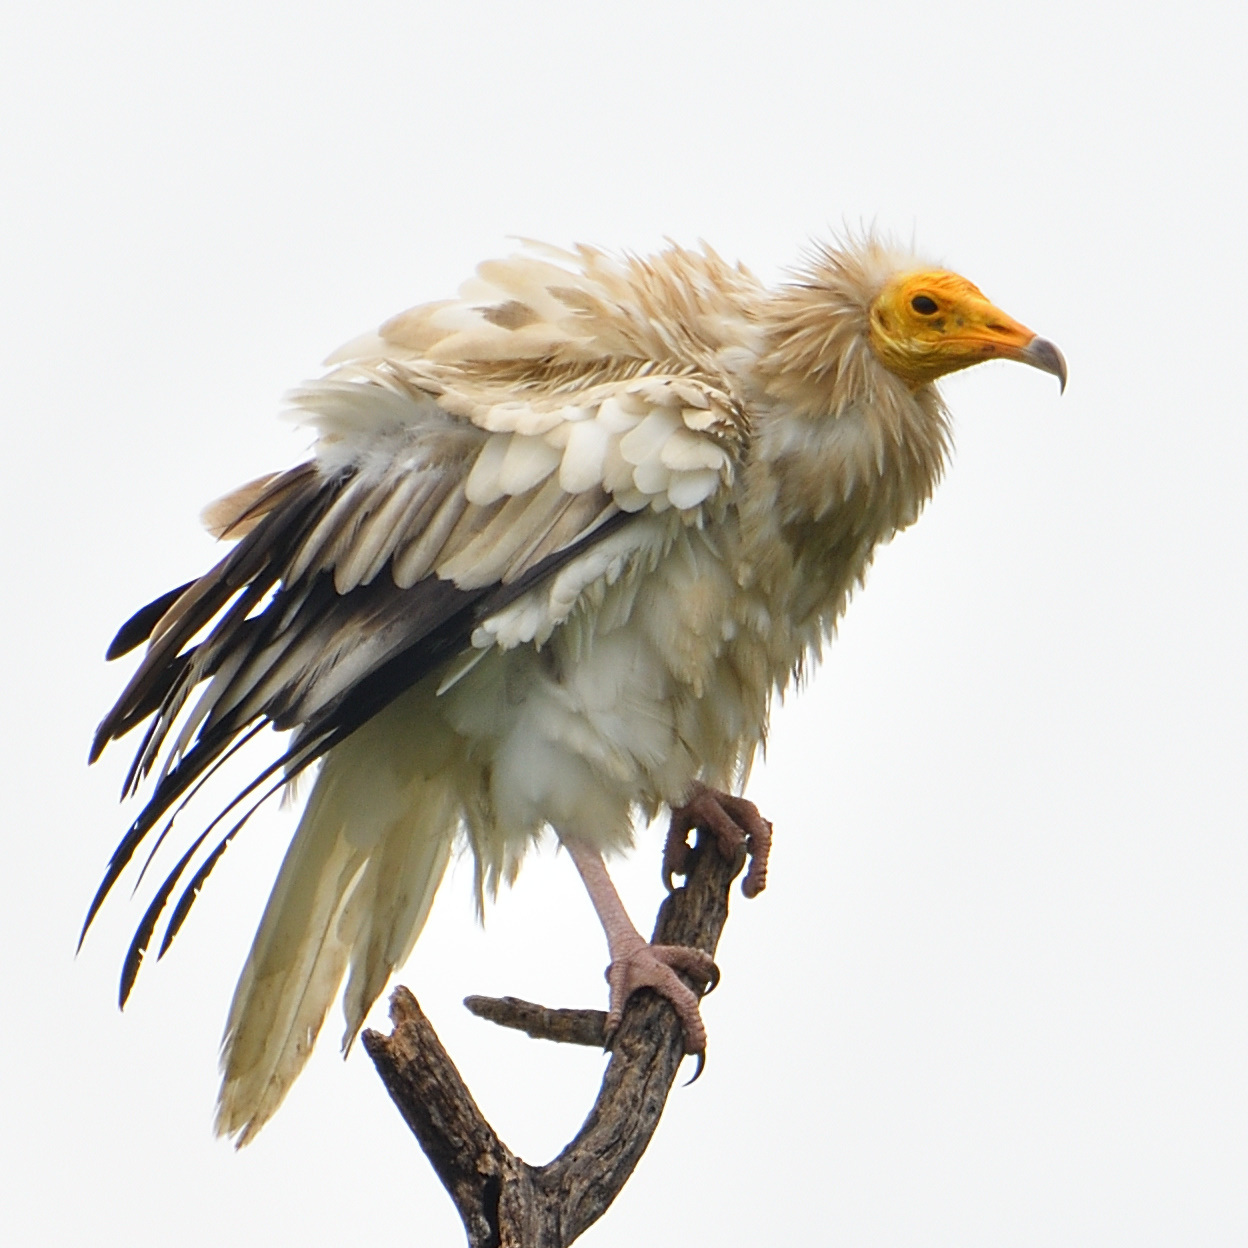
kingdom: Animalia
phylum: Chordata
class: Aves
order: Accipitriformes
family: Accipitridae
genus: Neophron
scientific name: Neophron percnopterus
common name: Egyptian vulture
